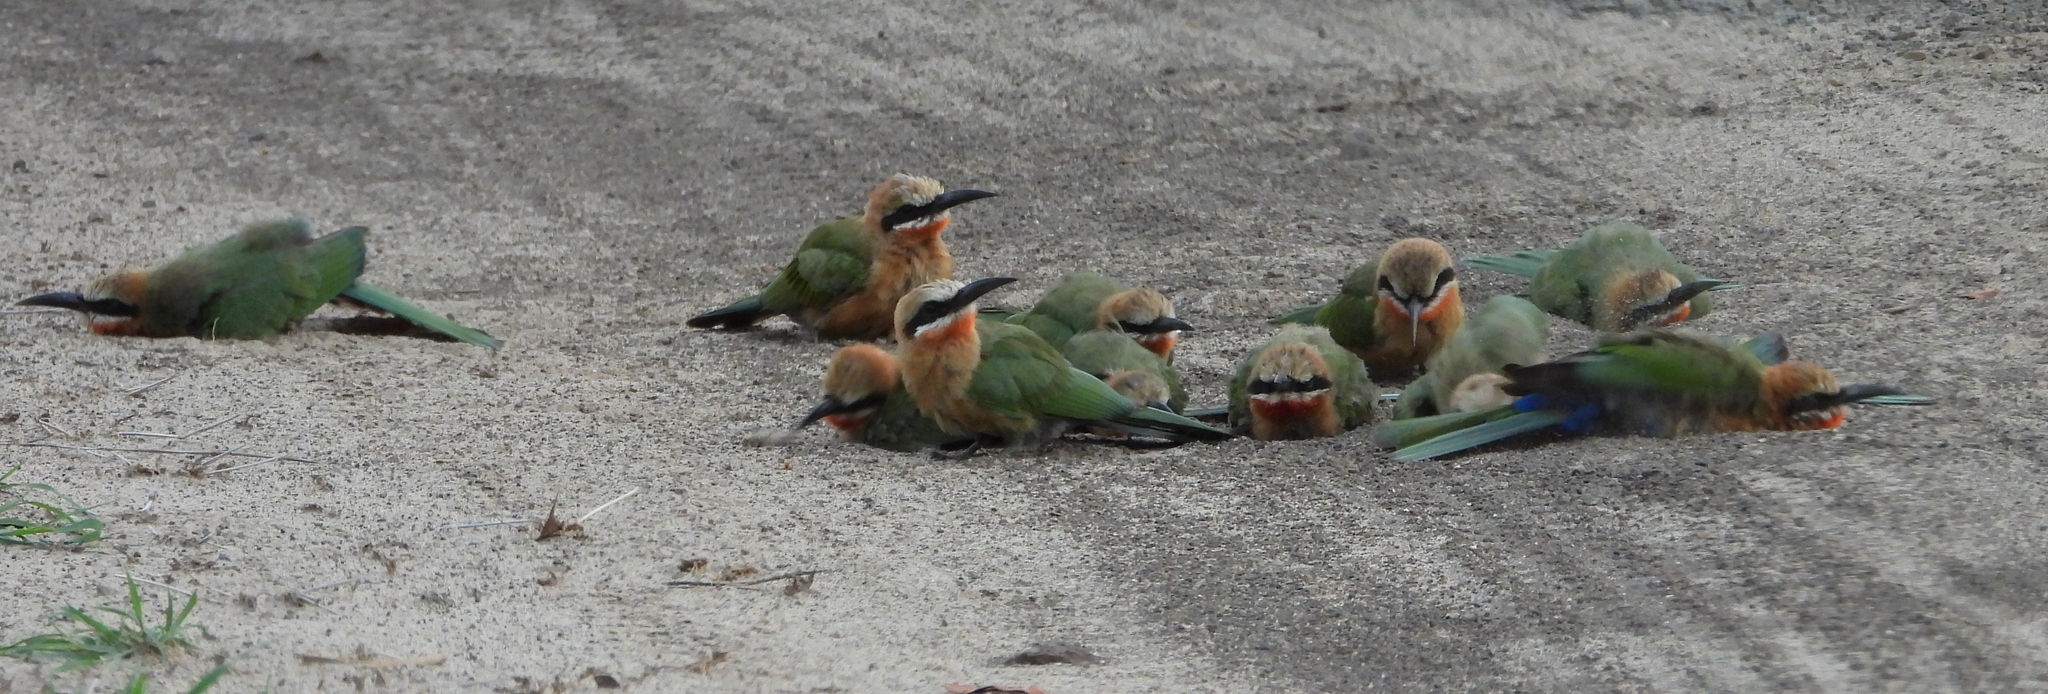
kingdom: Animalia
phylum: Chordata
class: Aves
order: Coraciiformes
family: Meropidae
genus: Merops
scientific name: Merops bullockoides
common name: White-fronted bee-eater
